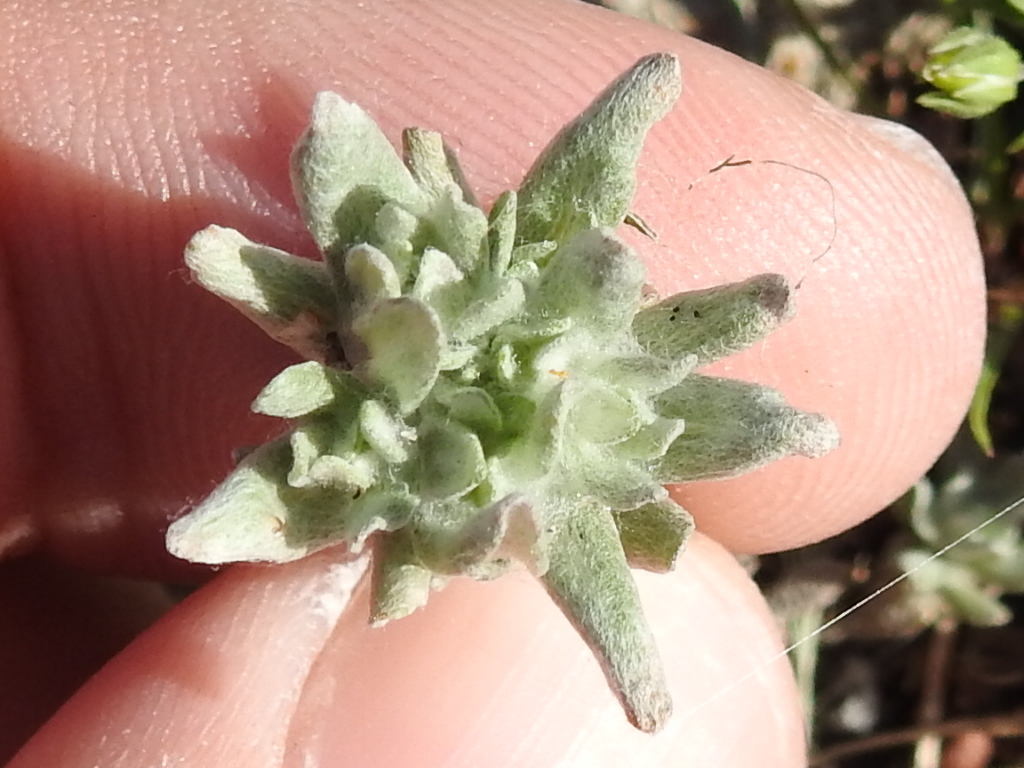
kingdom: Plantae
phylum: Tracheophyta
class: Magnoliopsida
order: Asterales
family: Asteraceae
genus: Diaperia
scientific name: Diaperia prolifera
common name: Big-head rabbit-tobacco
